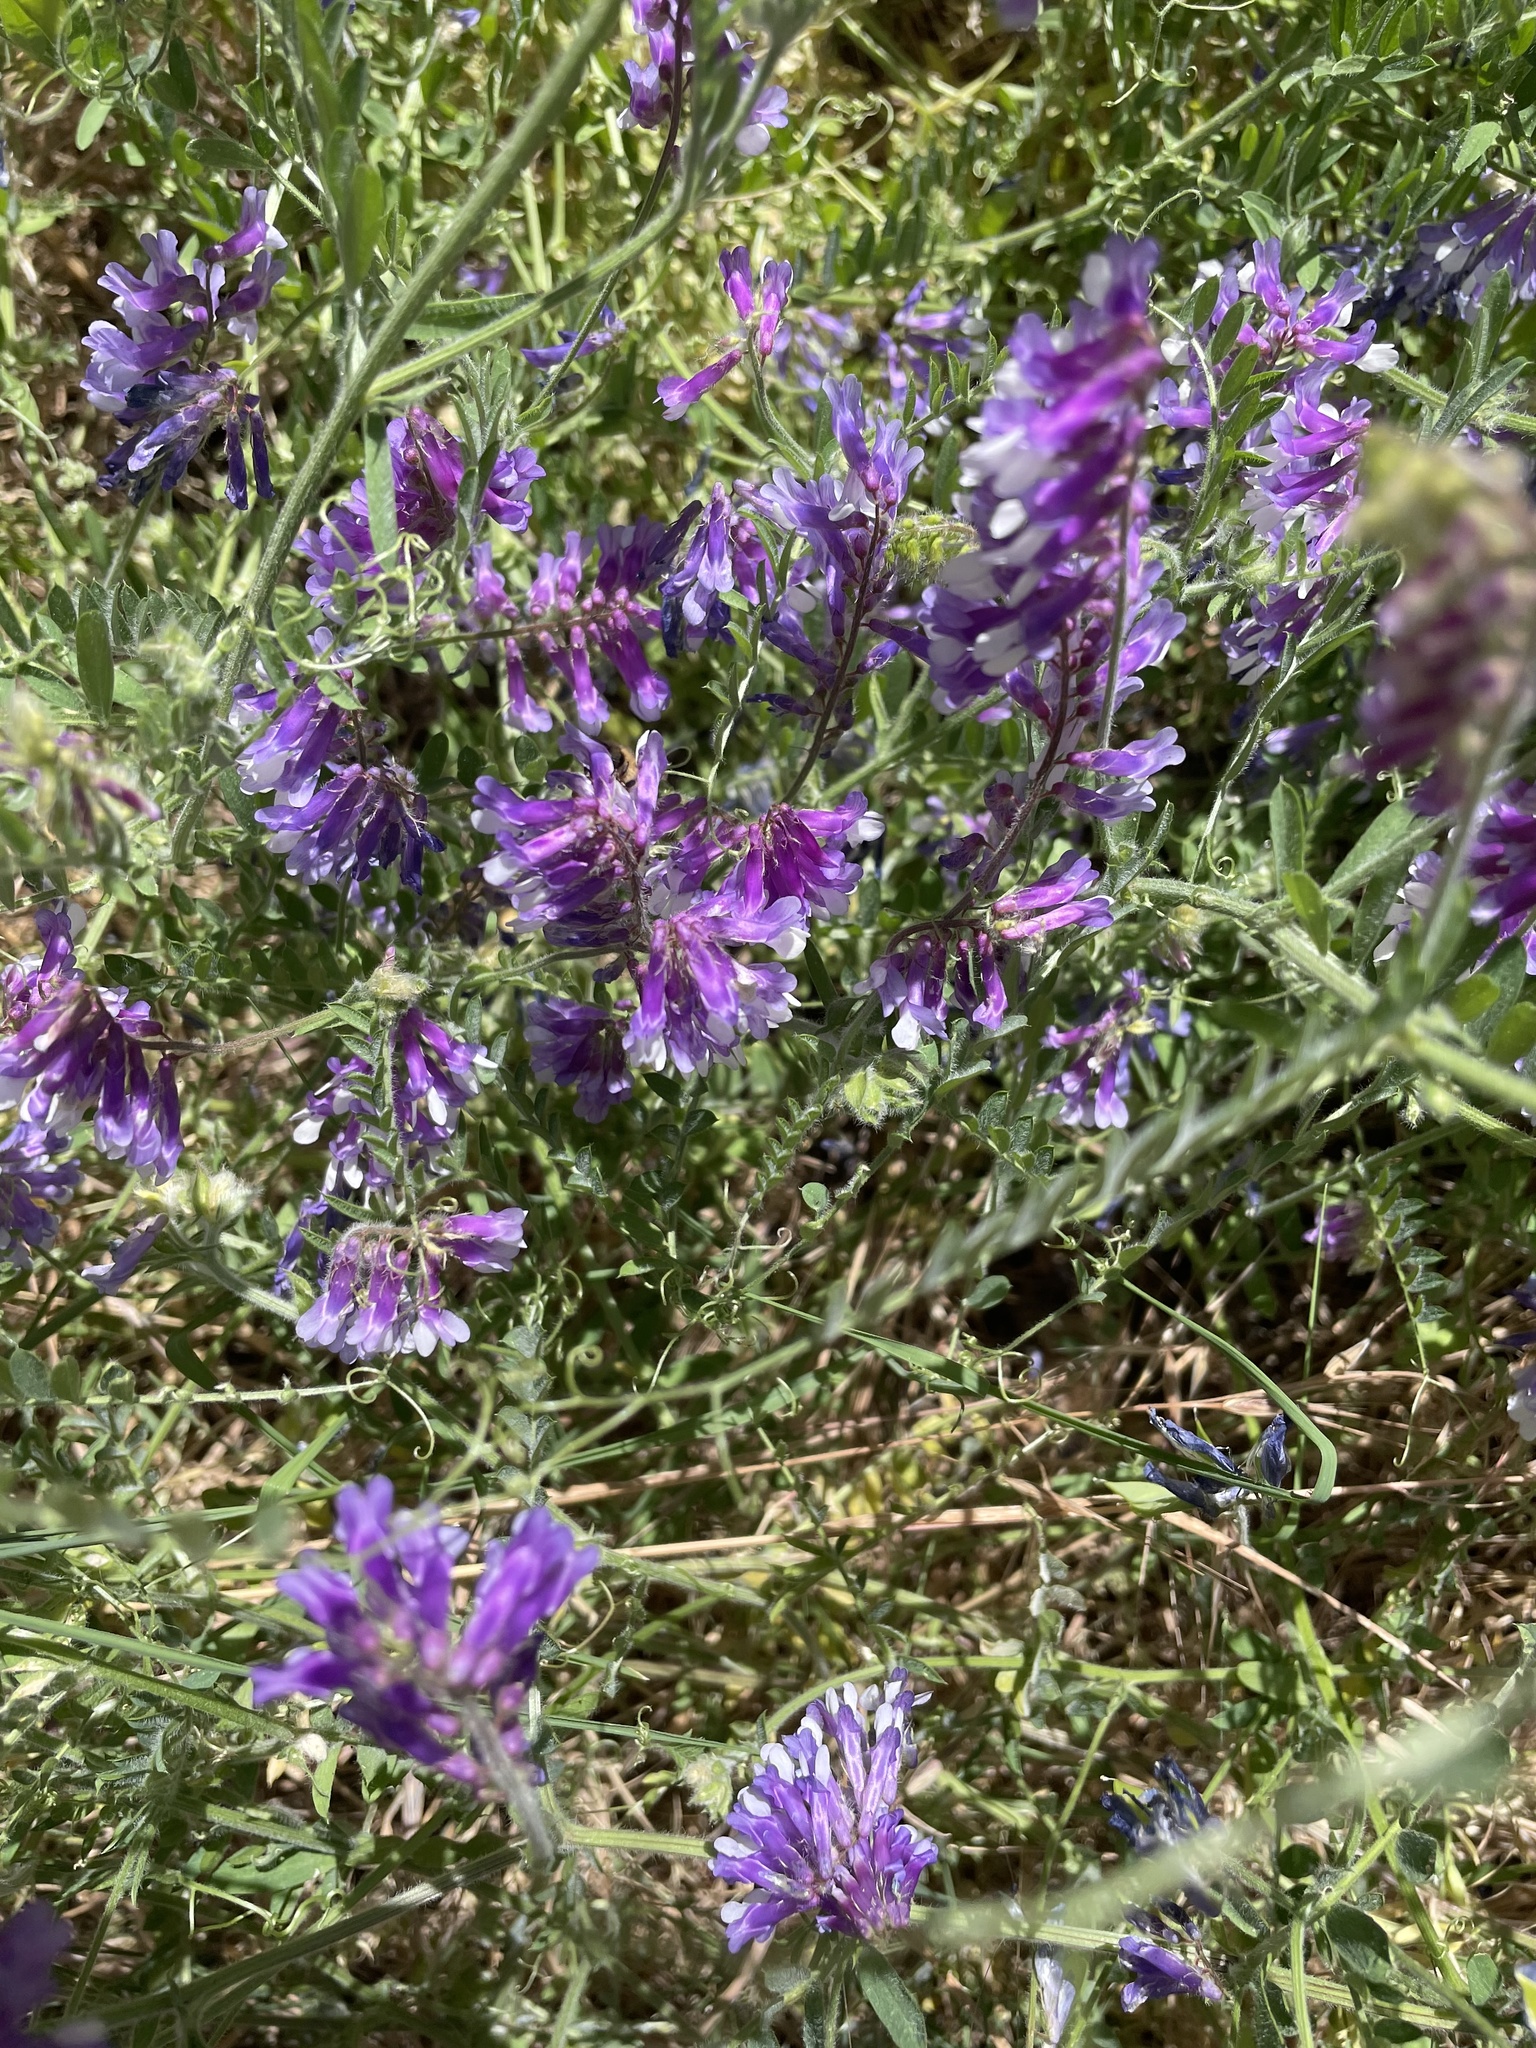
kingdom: Plantae
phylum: Tracheophyta
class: Magnoliopsida
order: Fabales
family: Fabaceae
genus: Vicia
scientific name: Vicia villosa
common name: Fodder vetch
